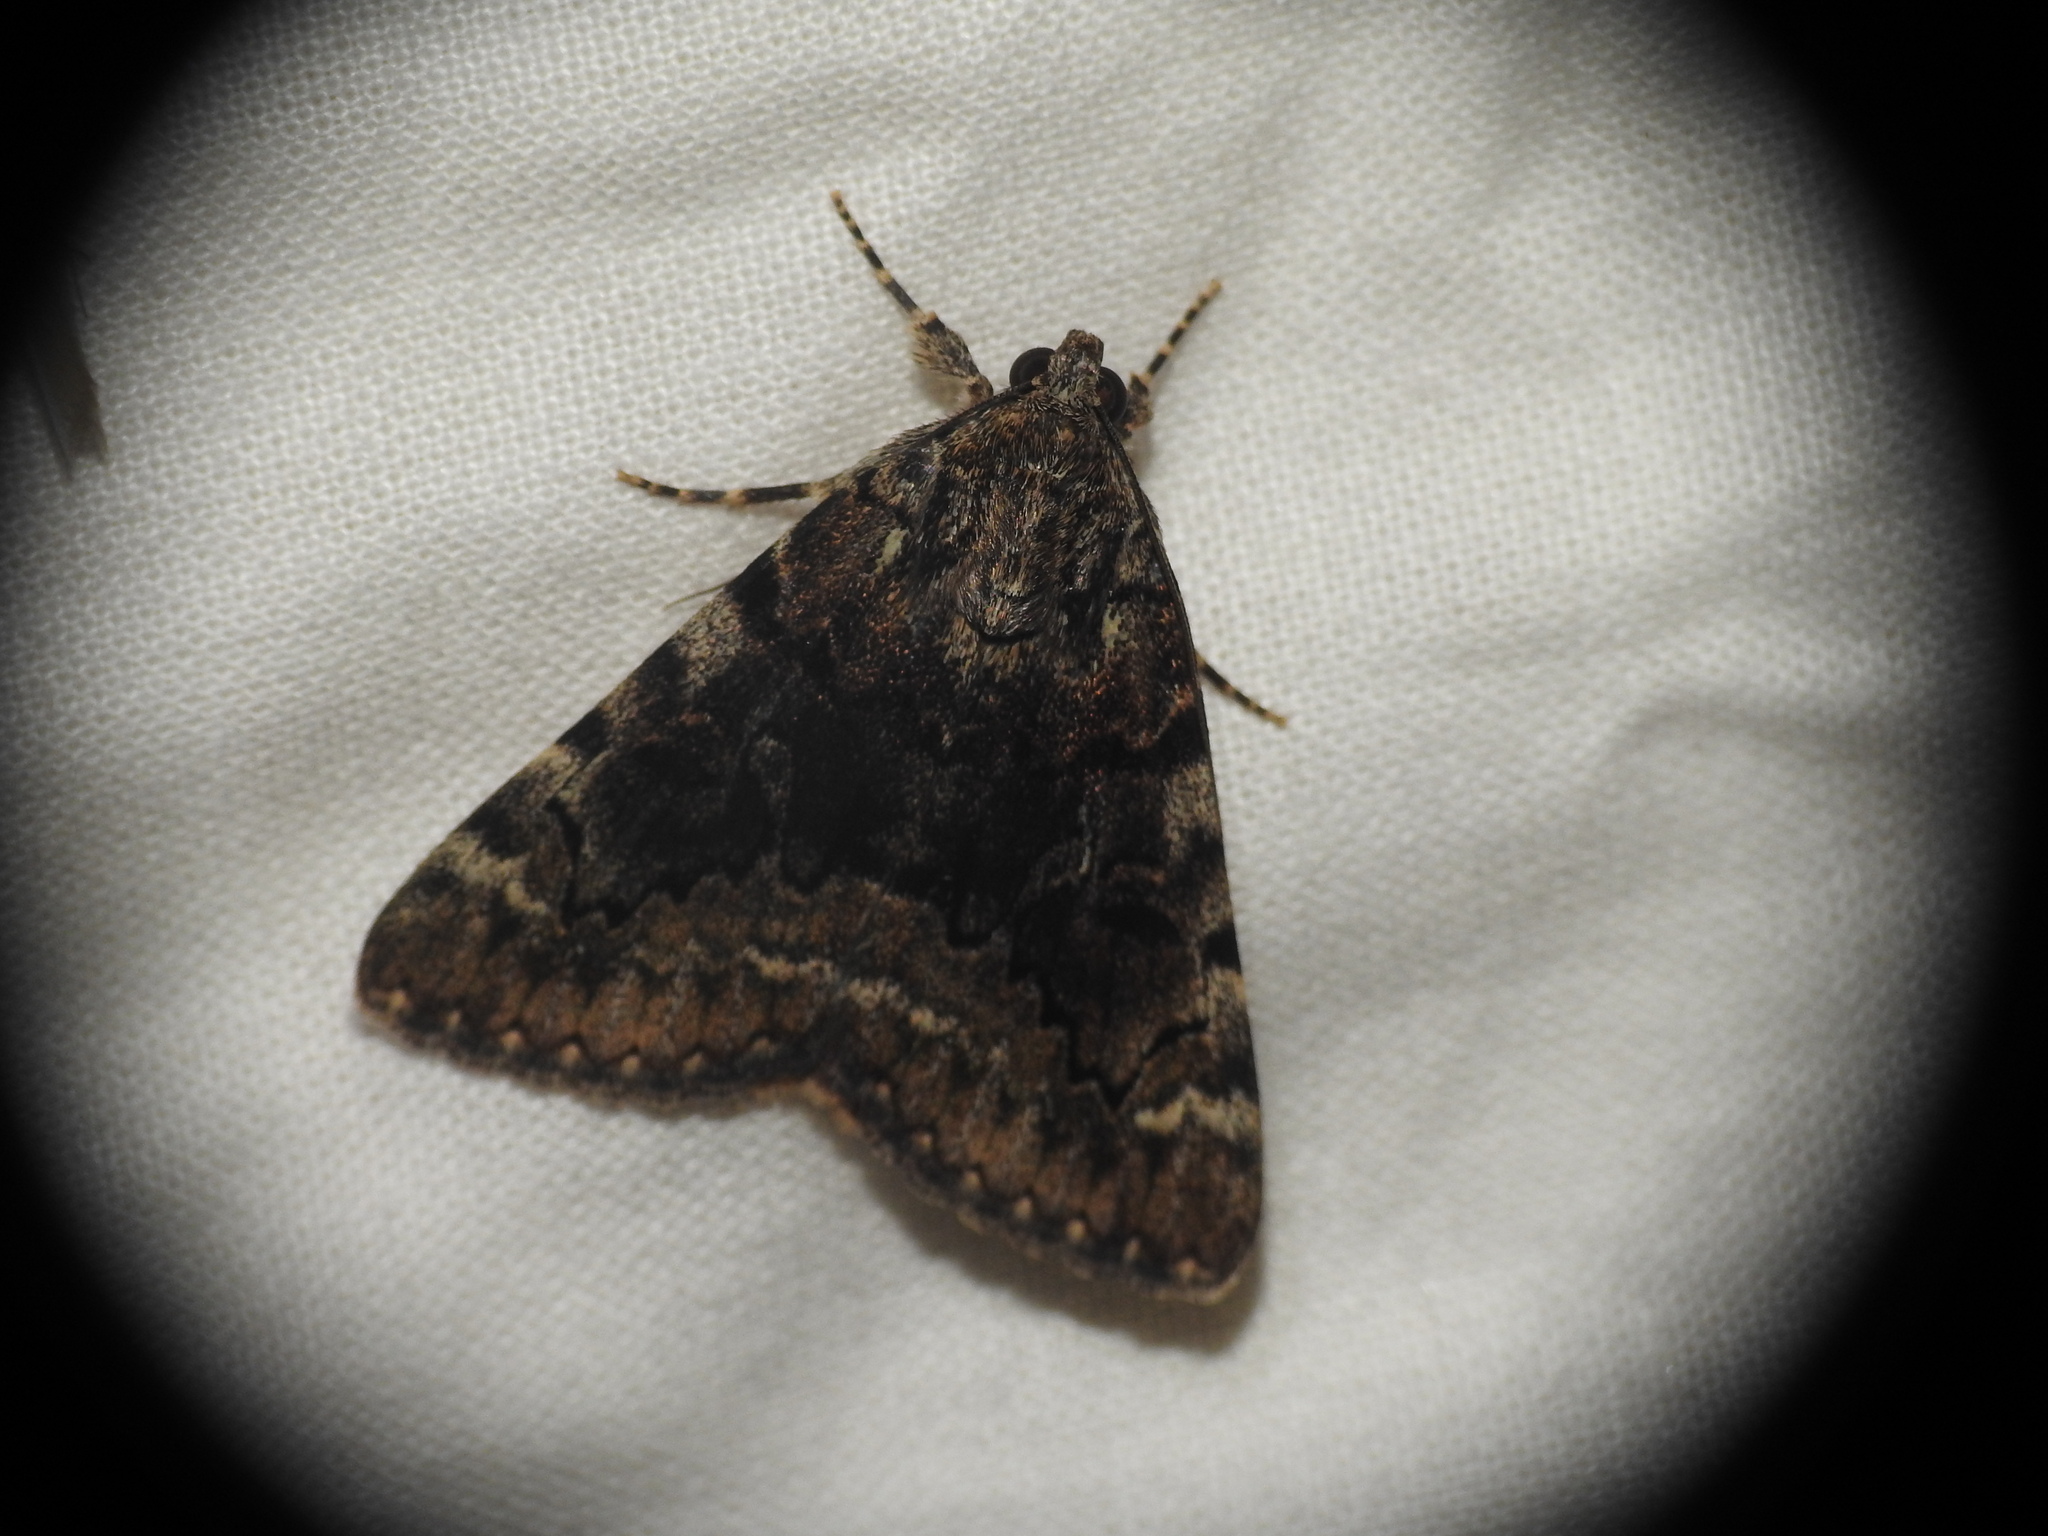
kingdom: Animalia
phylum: Arthropoda
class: Insecta
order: Lepidoptera
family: Erebidae
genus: Catocala
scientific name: Catocala nymphagoga
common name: Oak yellow underwing
